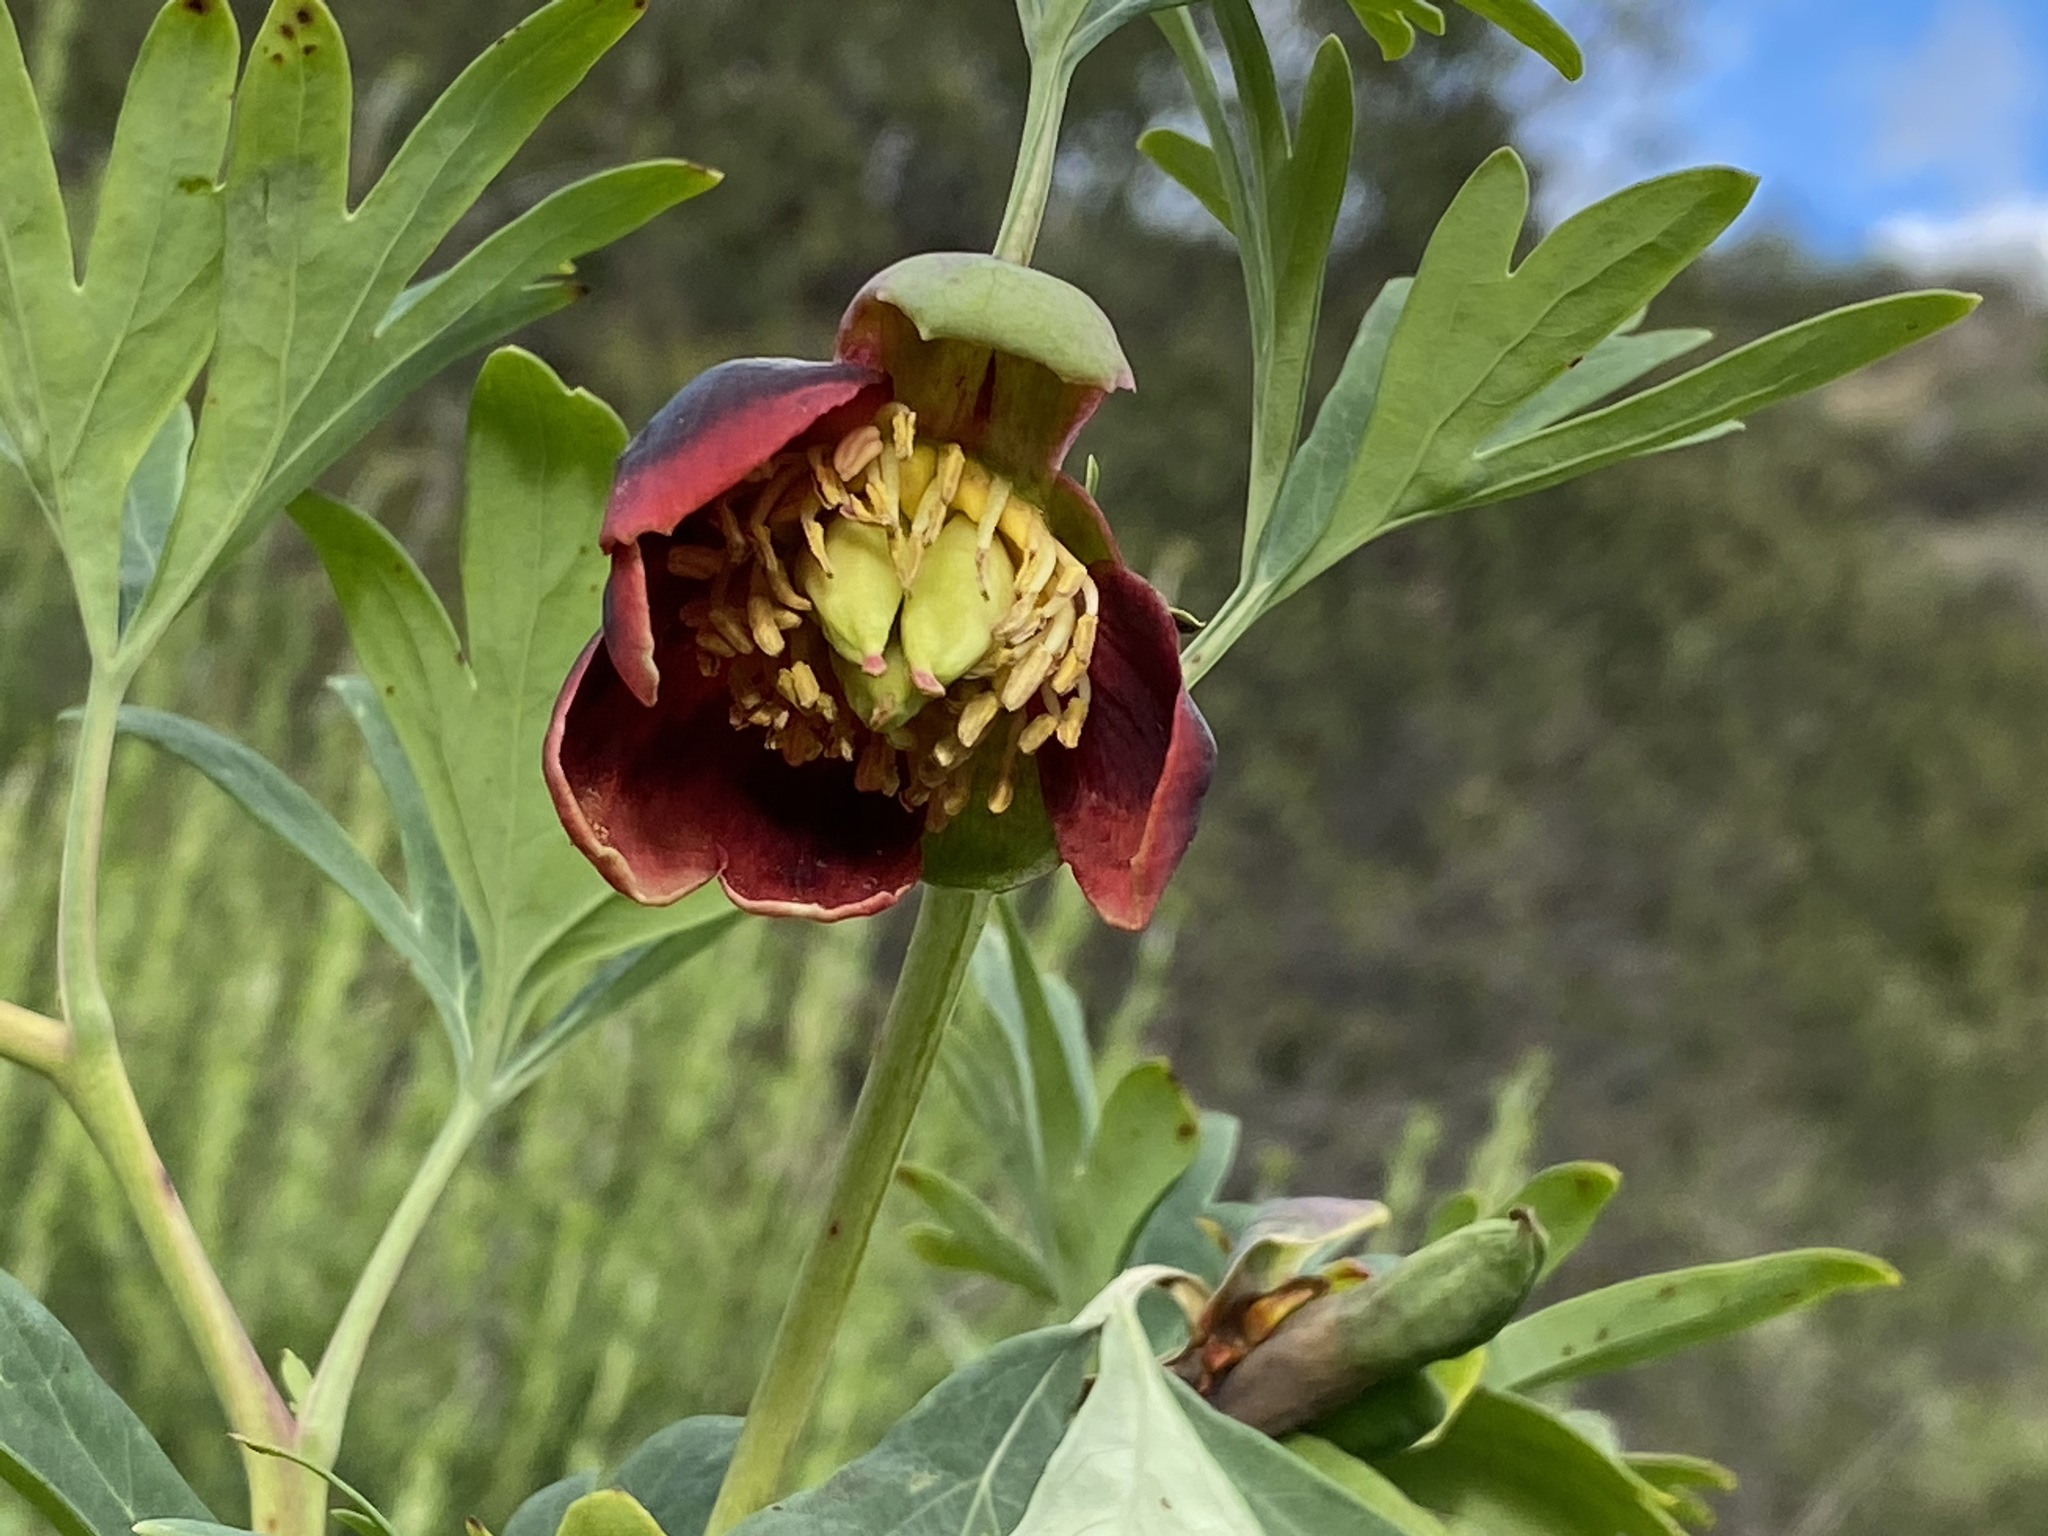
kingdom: Plantae
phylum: Tracheophyta
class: Magnoliopsida
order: Saxifragales
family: Paeoniaceae
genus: Paeonia
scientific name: Paeonia californica
